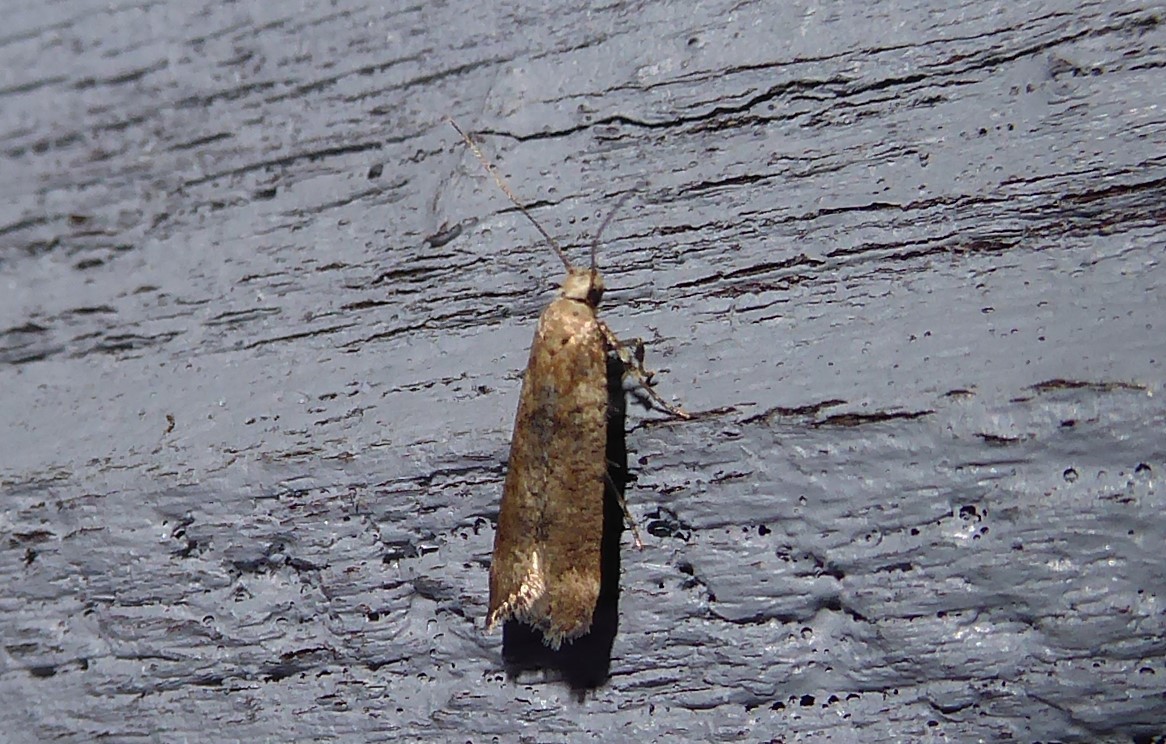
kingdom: Animalia
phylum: Arthropoda
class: Insecta
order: Lepidoptera
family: Gelechiidae
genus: Anisoplaca
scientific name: Anisoplaca acrodactyla
